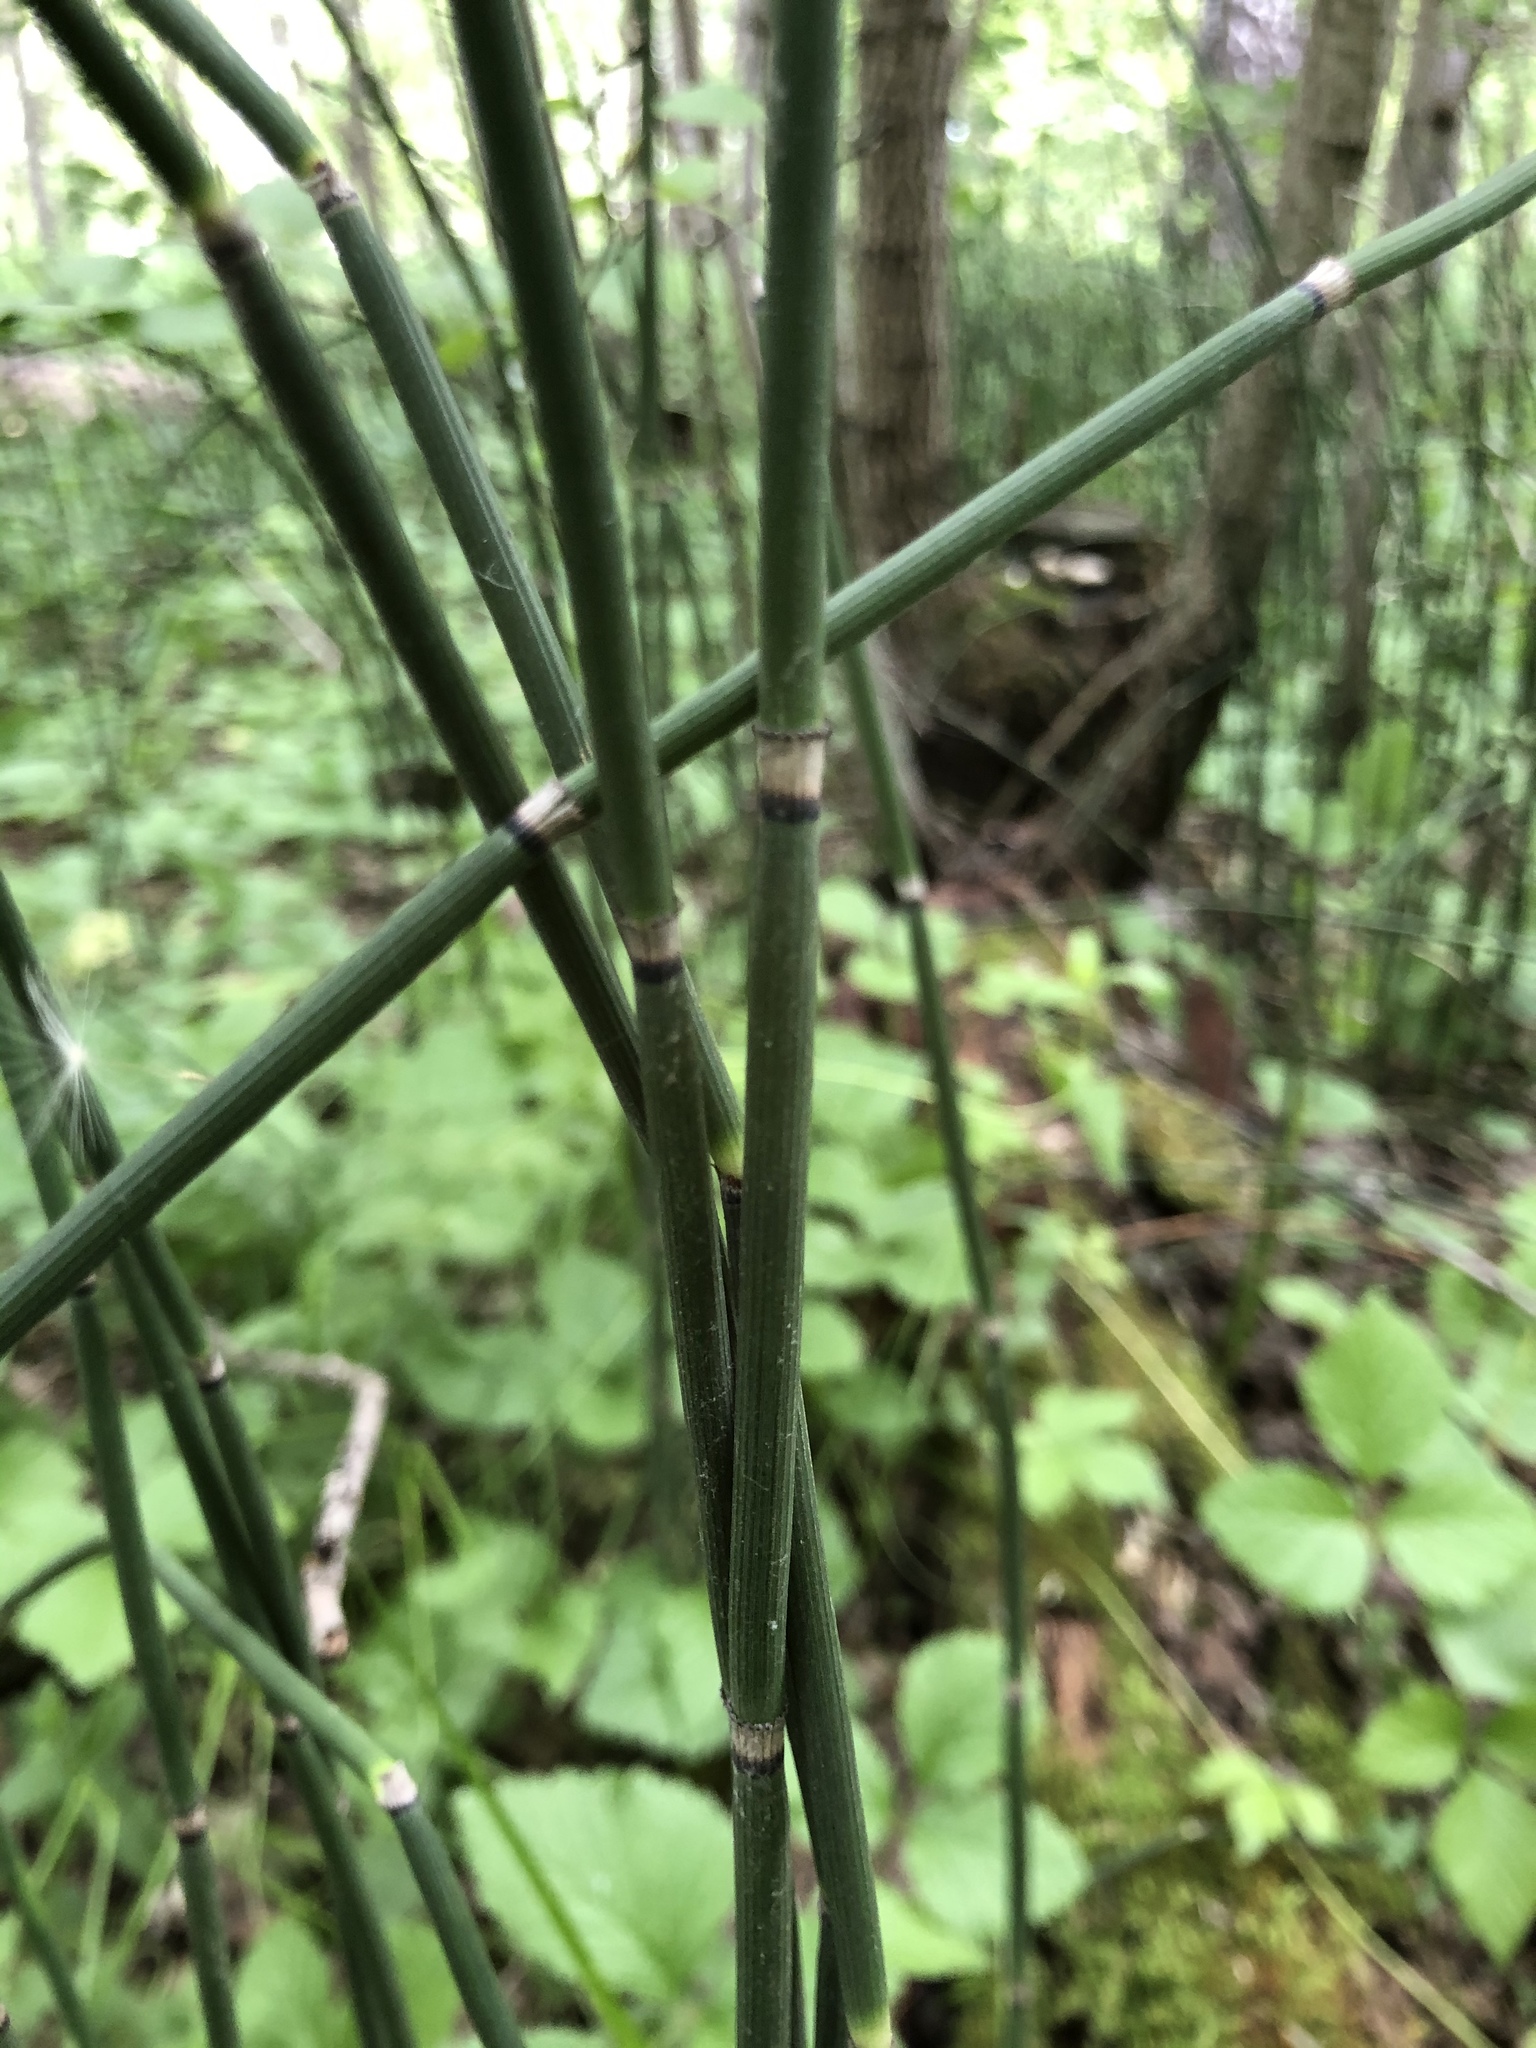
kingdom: Plantae
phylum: Tracheophyta
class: Polypodiopsida
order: Equisetales
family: Equisetaceae
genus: Equisetum
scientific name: Equisetum hyemale
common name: Rough horsetail
